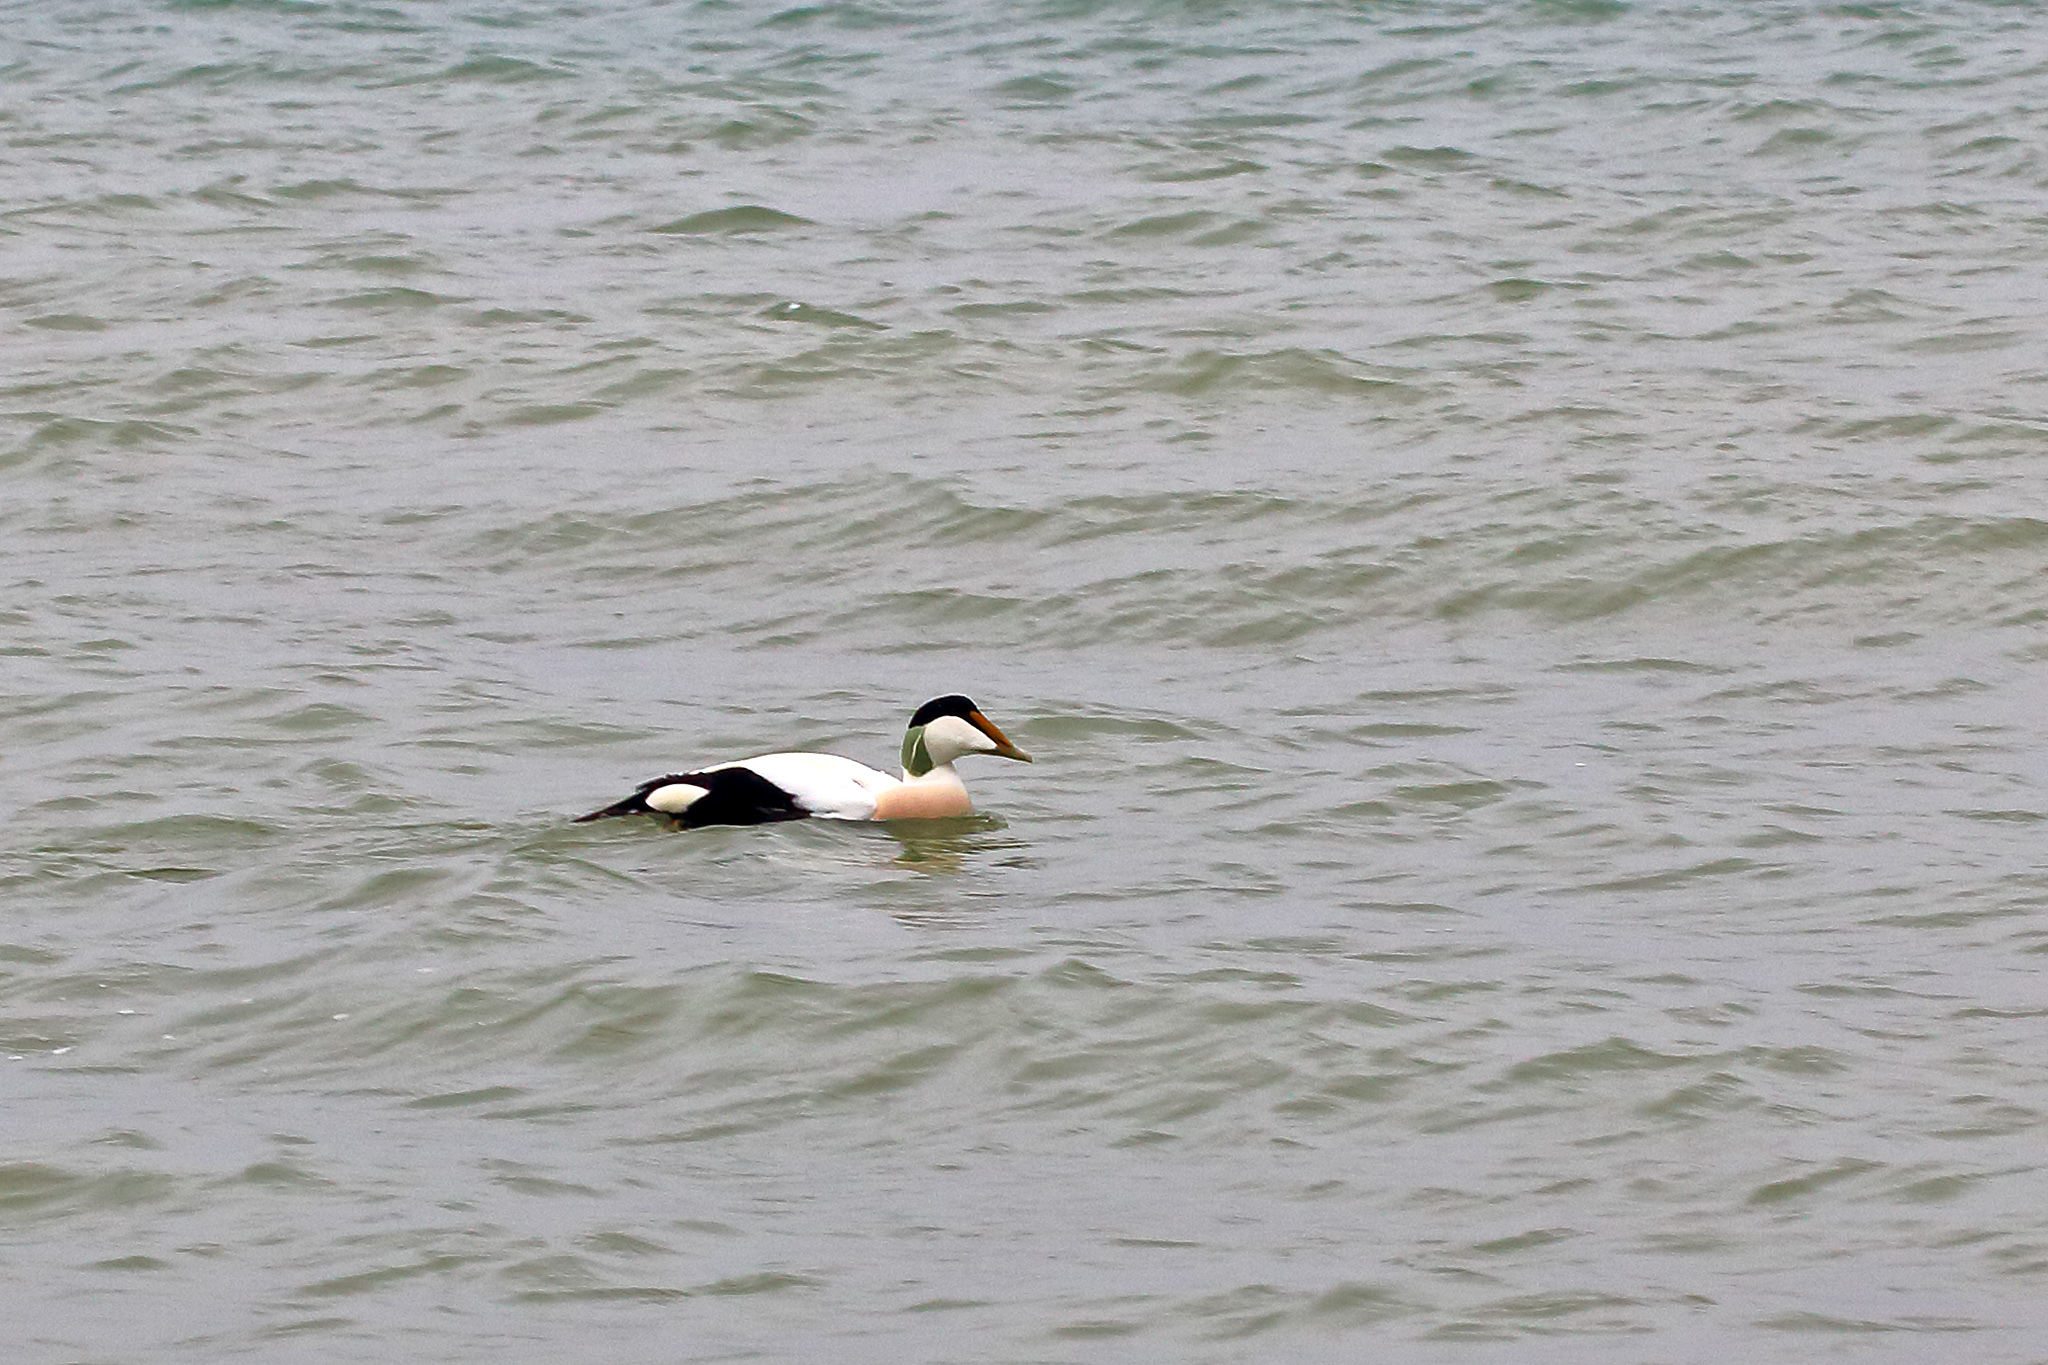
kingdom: Animalia
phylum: Chordata
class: Aves
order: Anseriformes
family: Anatidae
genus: Somateria
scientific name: Somateria mollissima
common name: Common eider
